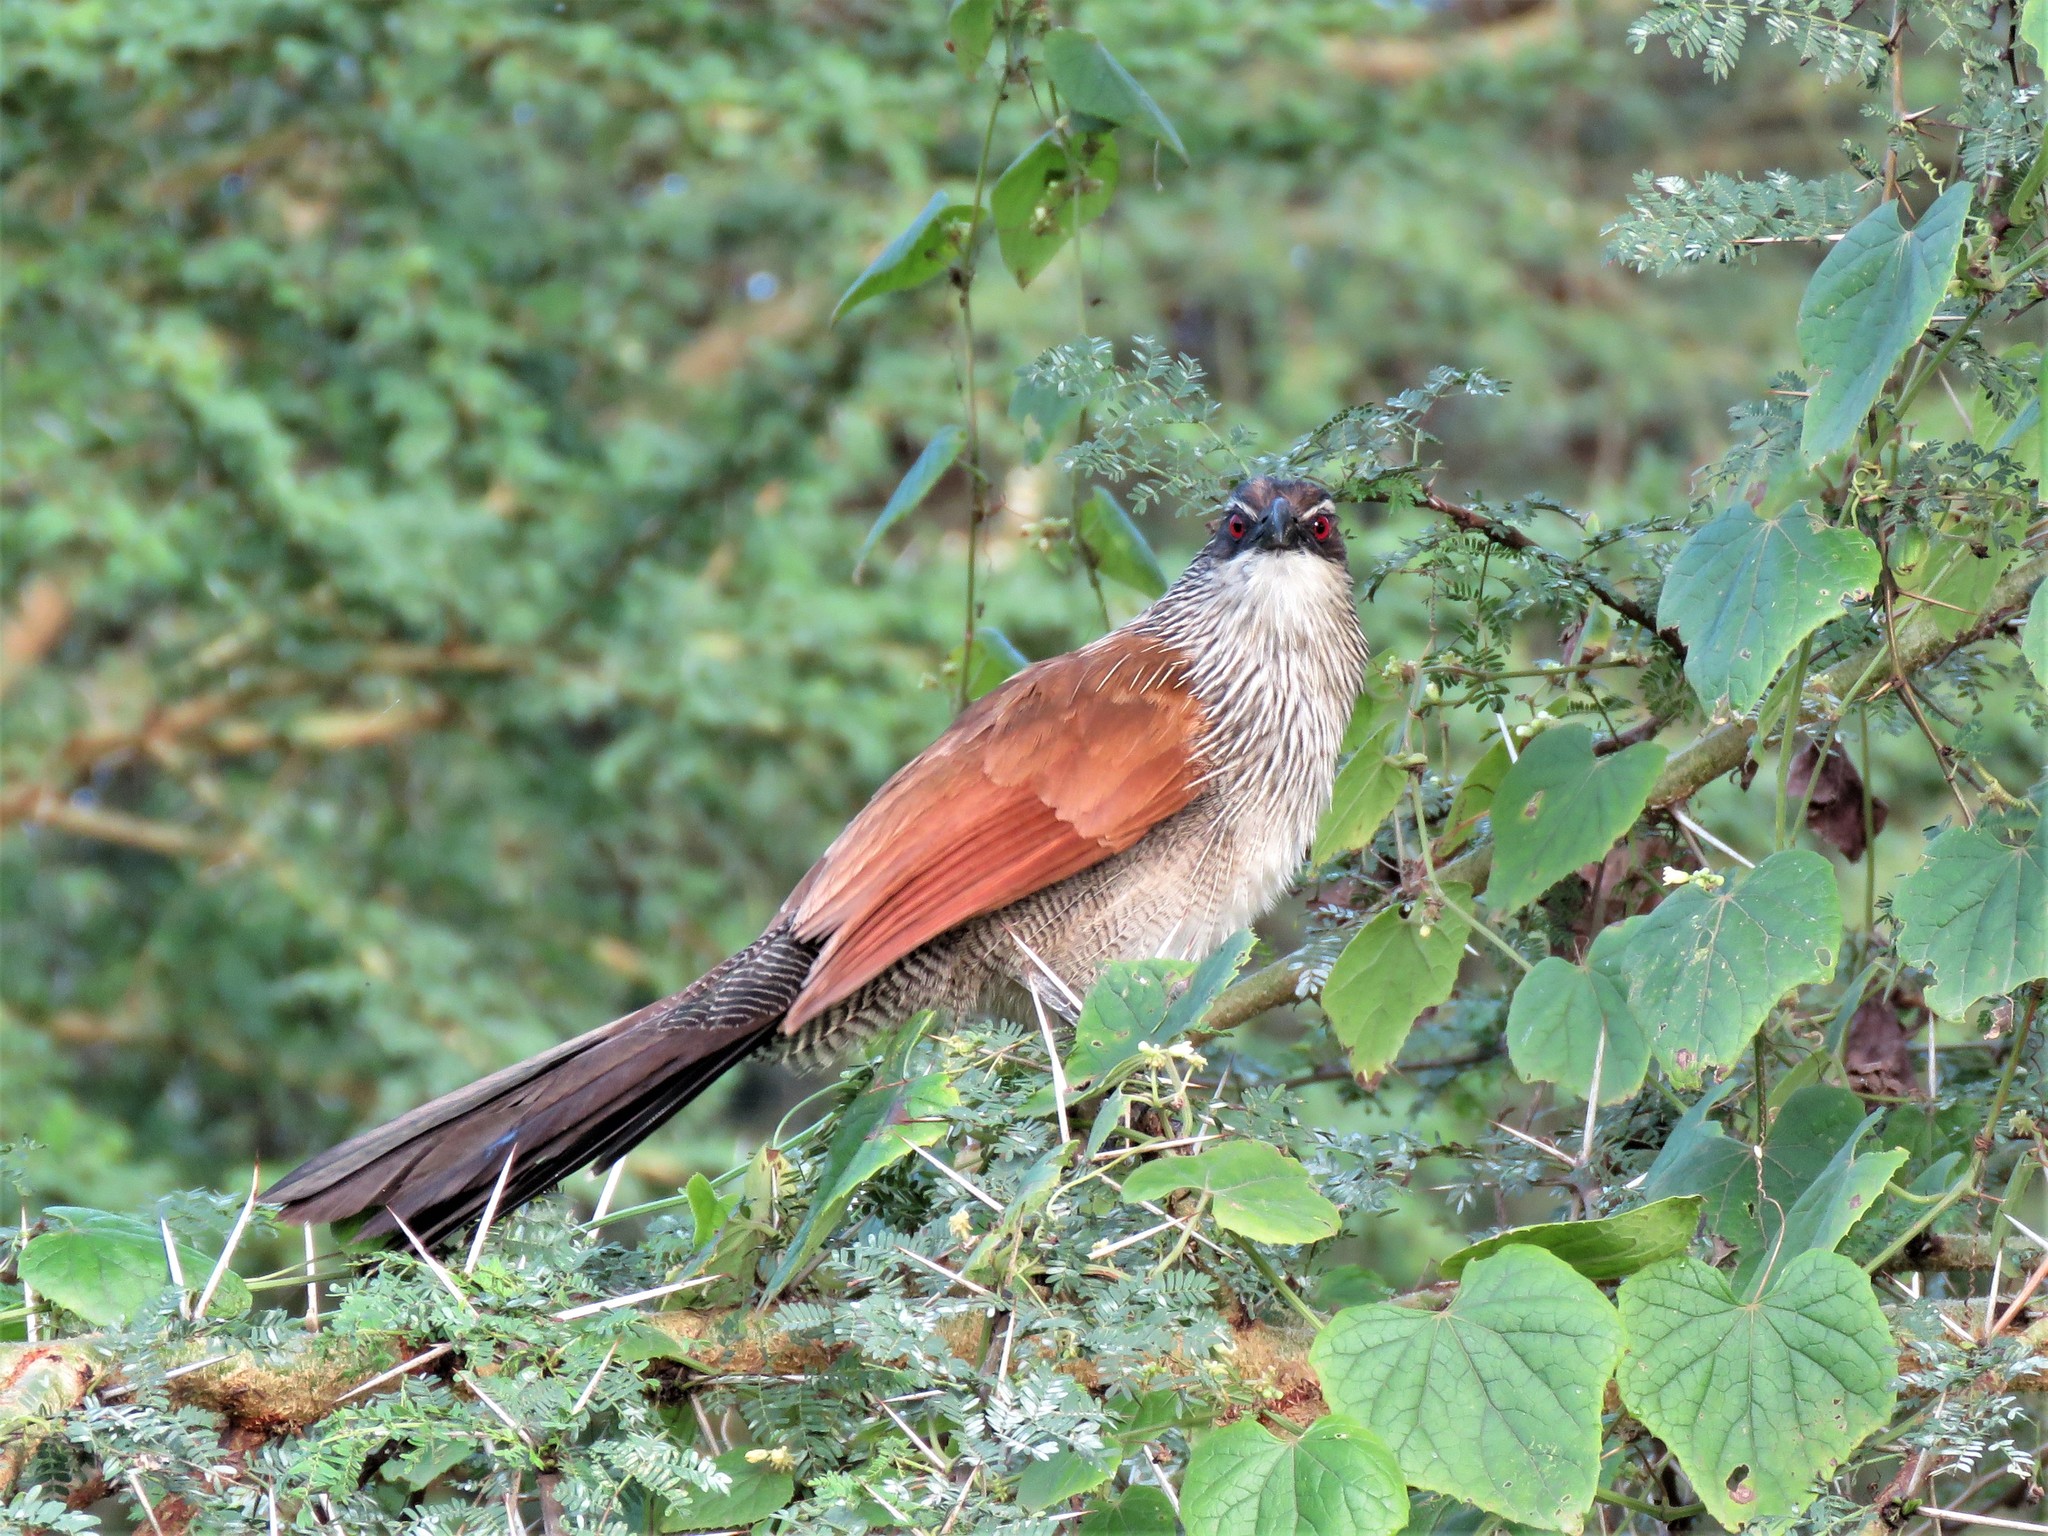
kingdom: Animalia
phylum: Chordata
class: Aves
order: Cuculiformes
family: Cuculidae
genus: Centropus
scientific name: Centropus superciliosus
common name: White-browed coucal
